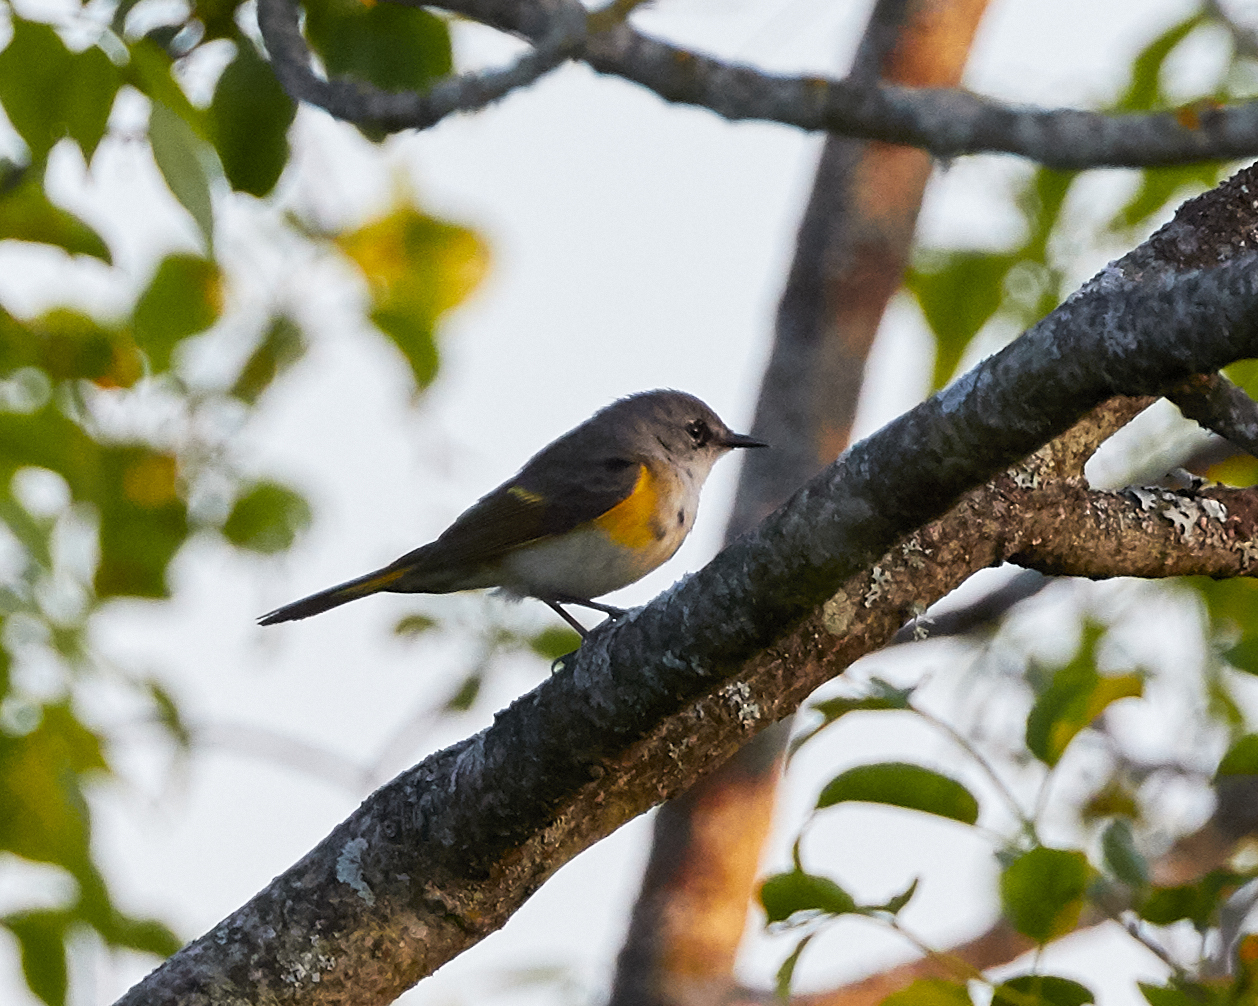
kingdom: Animalia
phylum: Chordata
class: Aves
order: Passeriformes
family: Parulidae
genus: Setophaga
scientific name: Setophaga ruticilla
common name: American redstart
